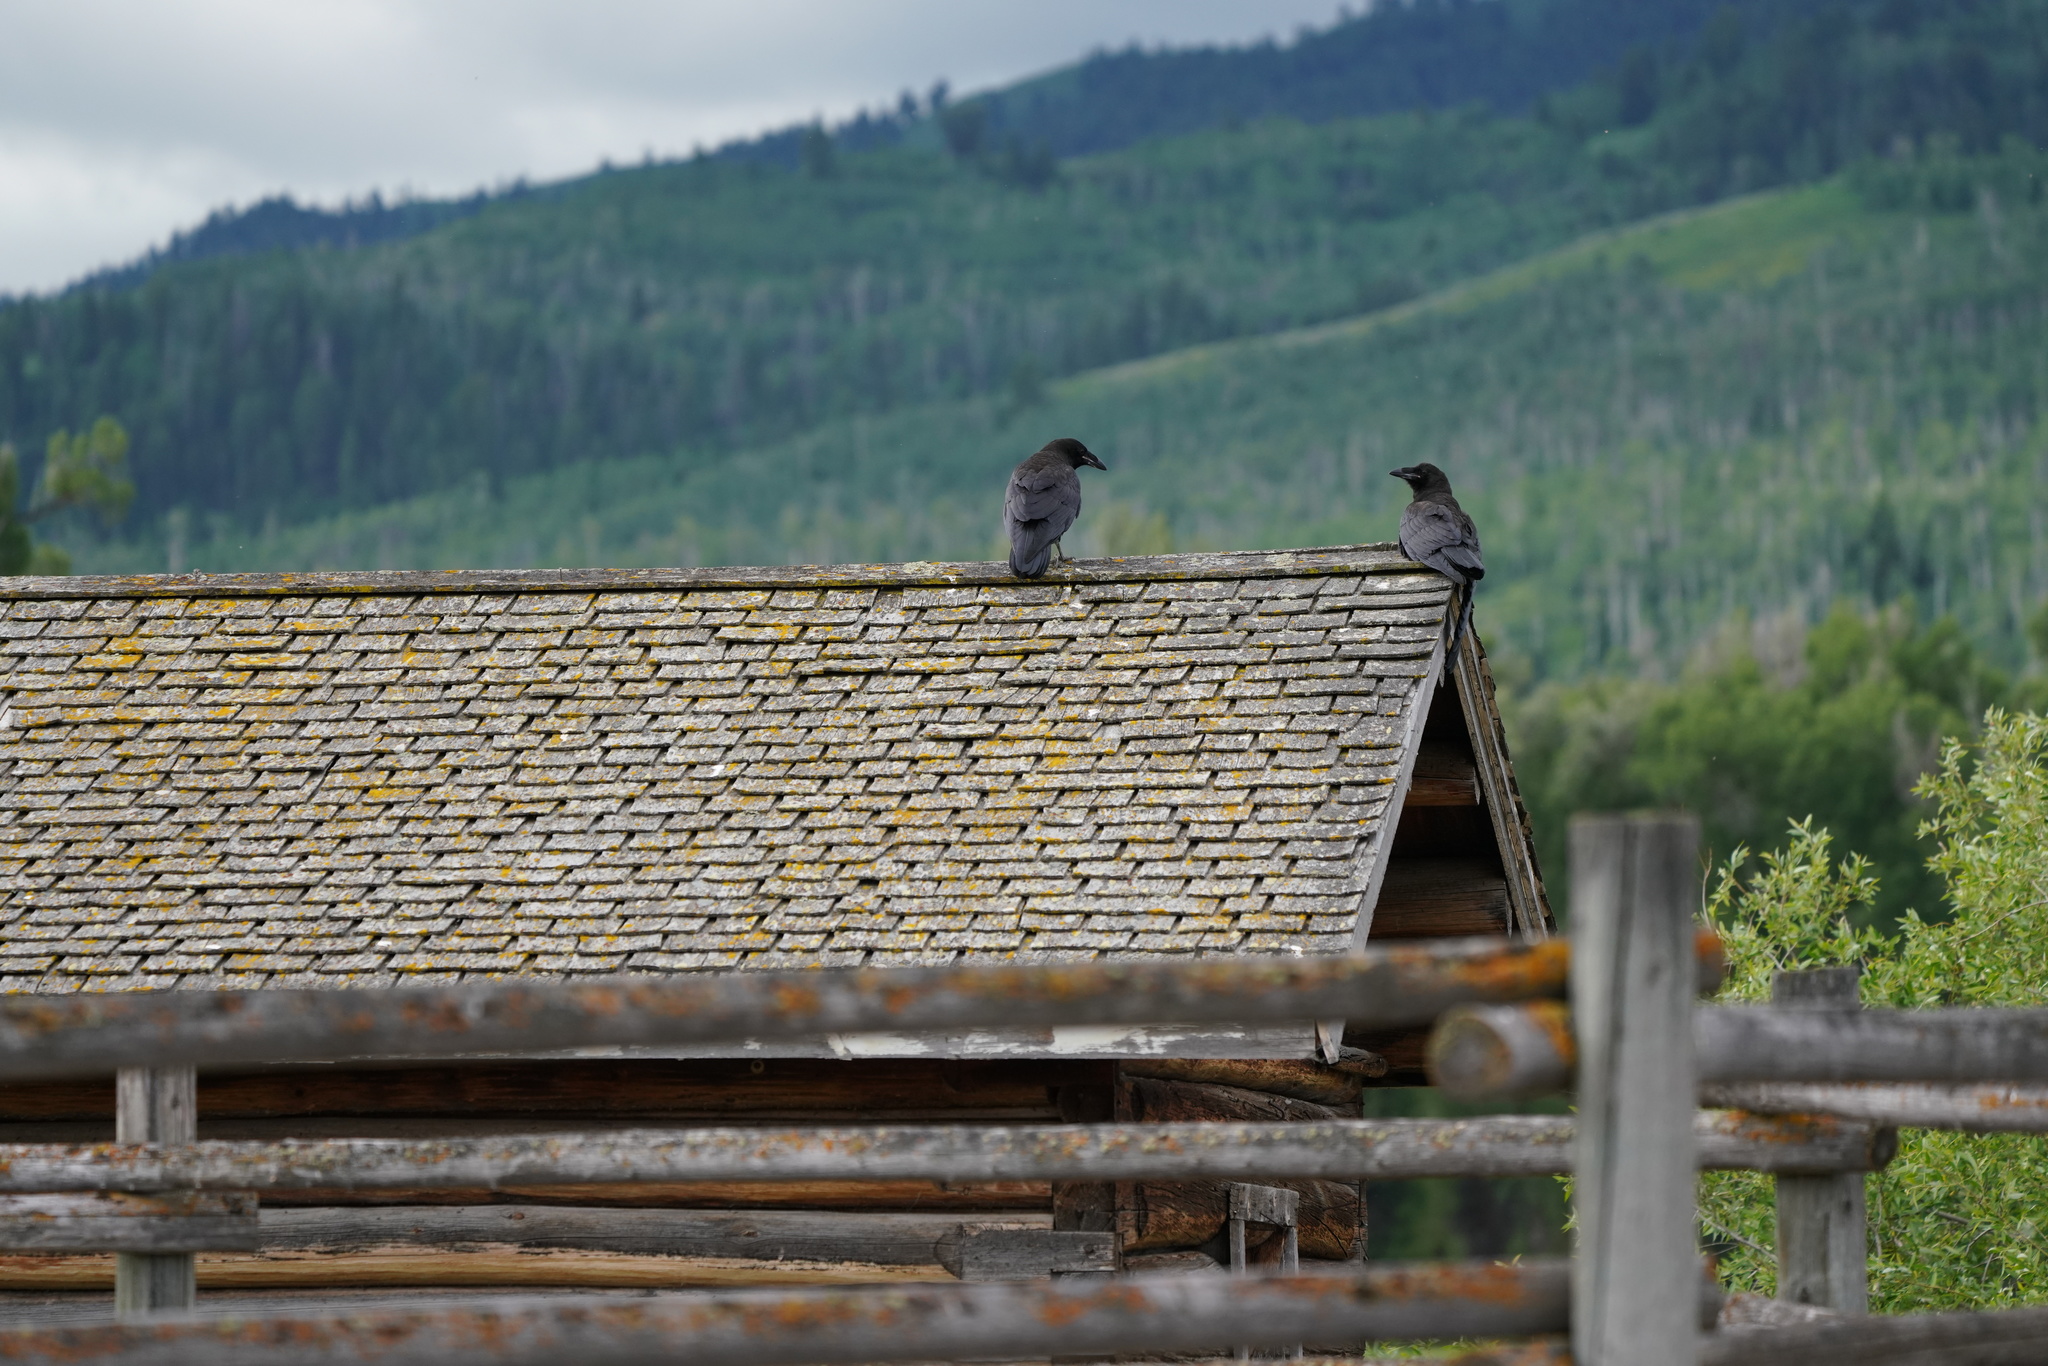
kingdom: Animalia
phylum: Chordata
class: Aves
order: Passeriformes
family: Corvidae
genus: Corvus
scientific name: Corvus corax
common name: Common raven
